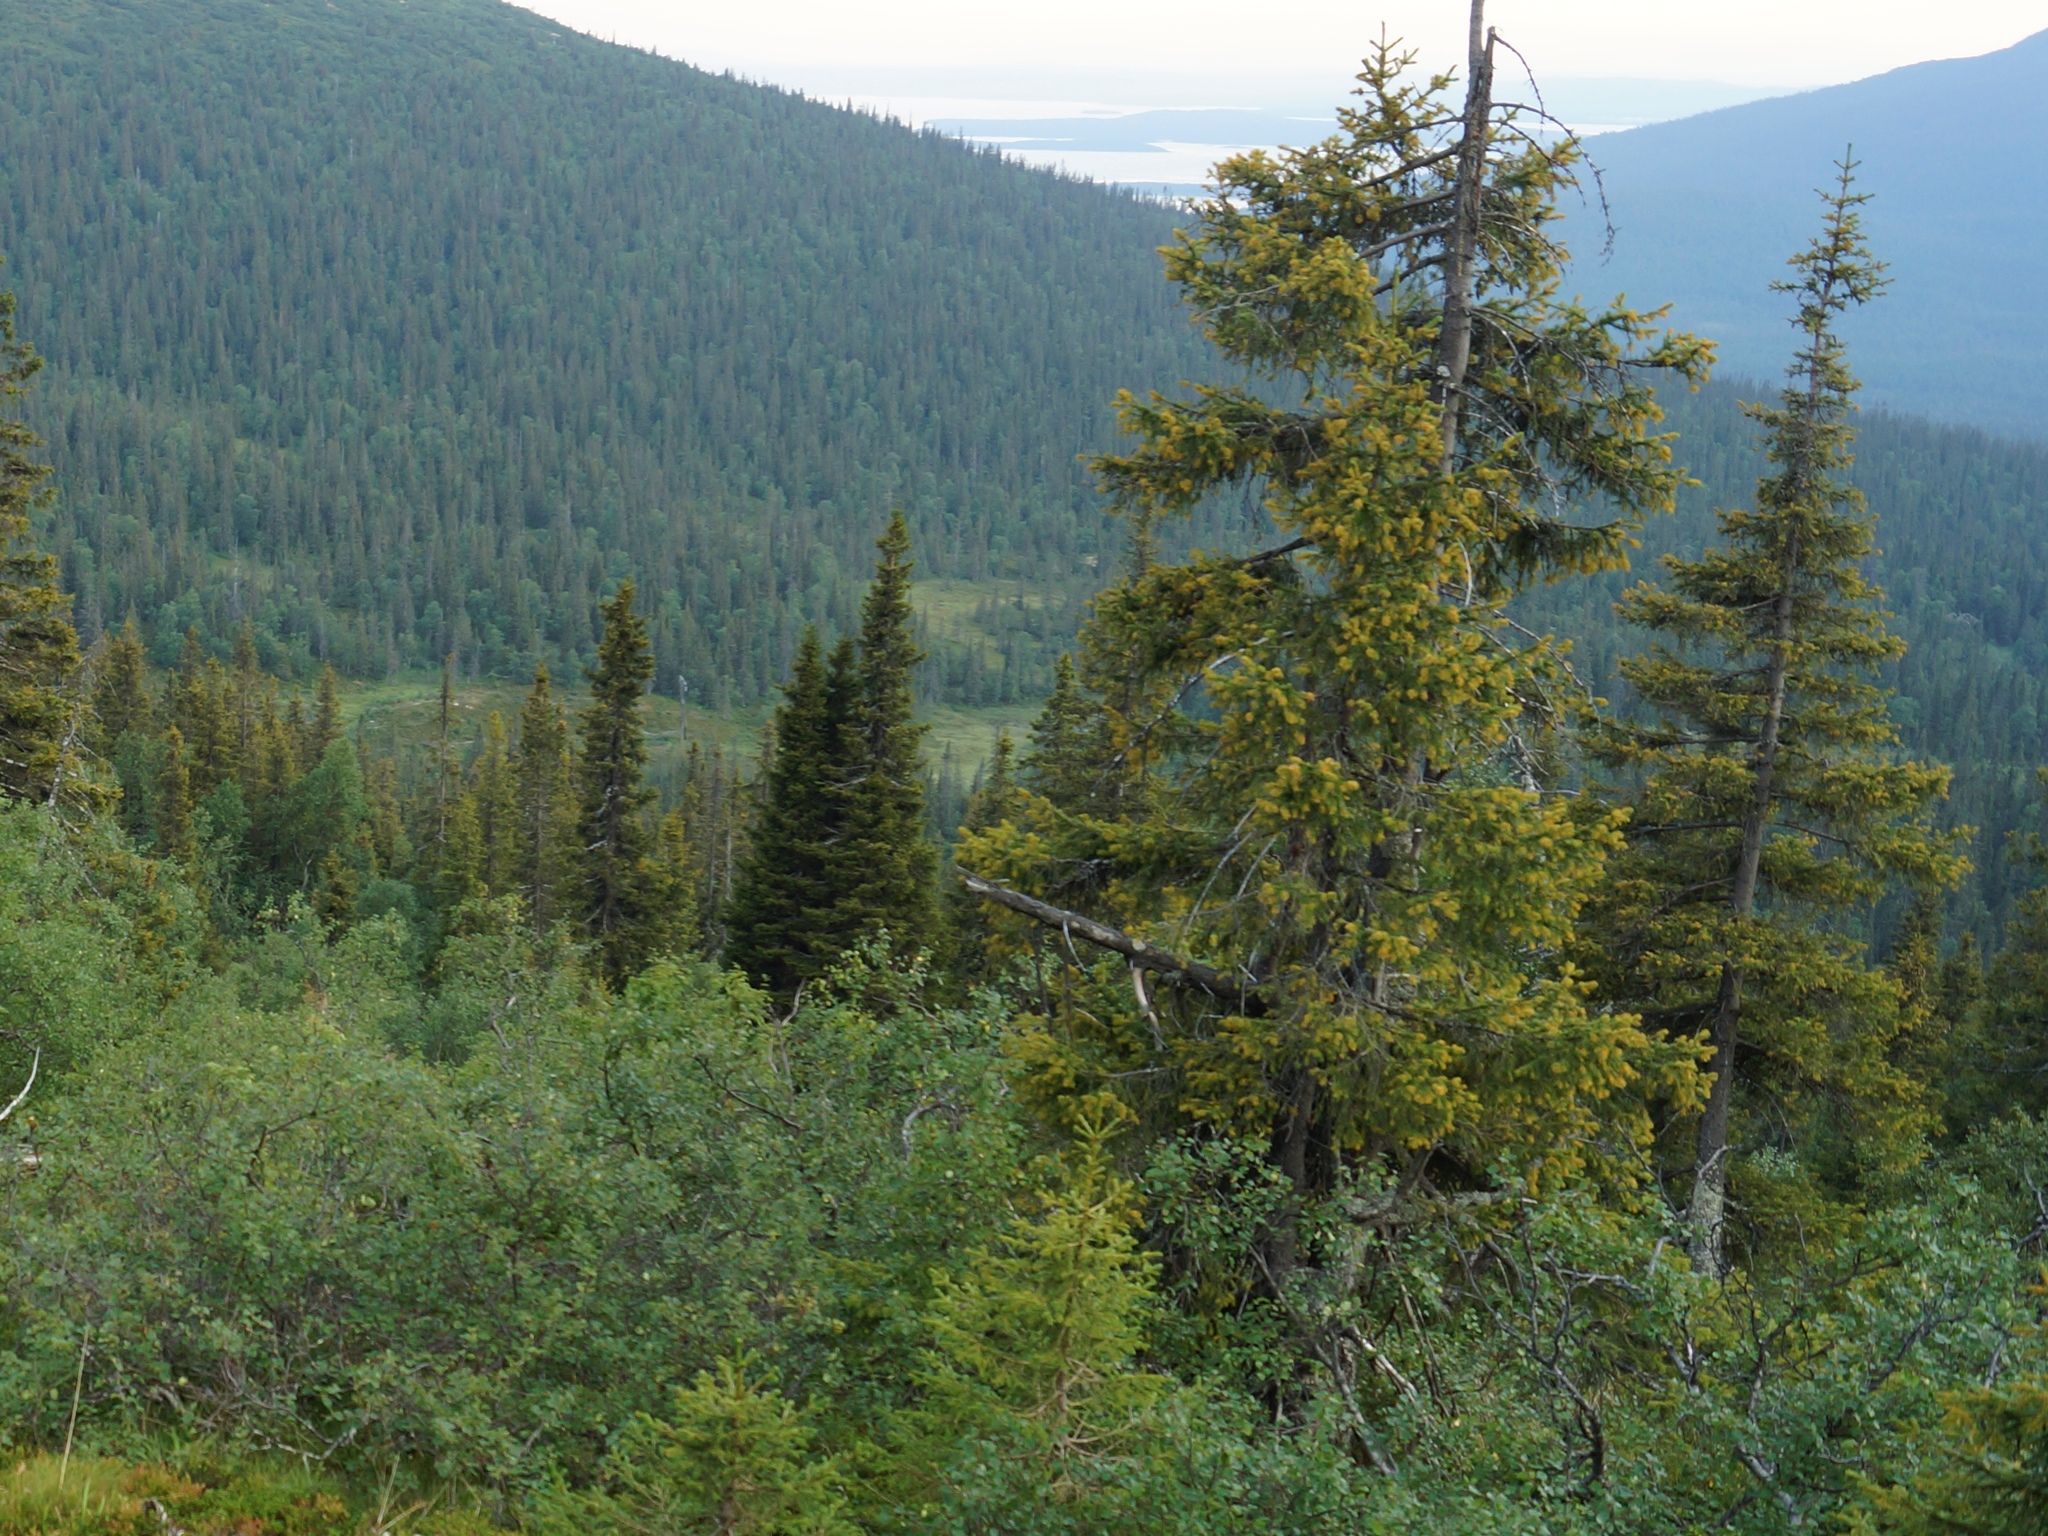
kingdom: Plantae
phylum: Tracheophyta
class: Pinopsida
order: Pinales
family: Pinaceae
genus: Picea
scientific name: Picea
